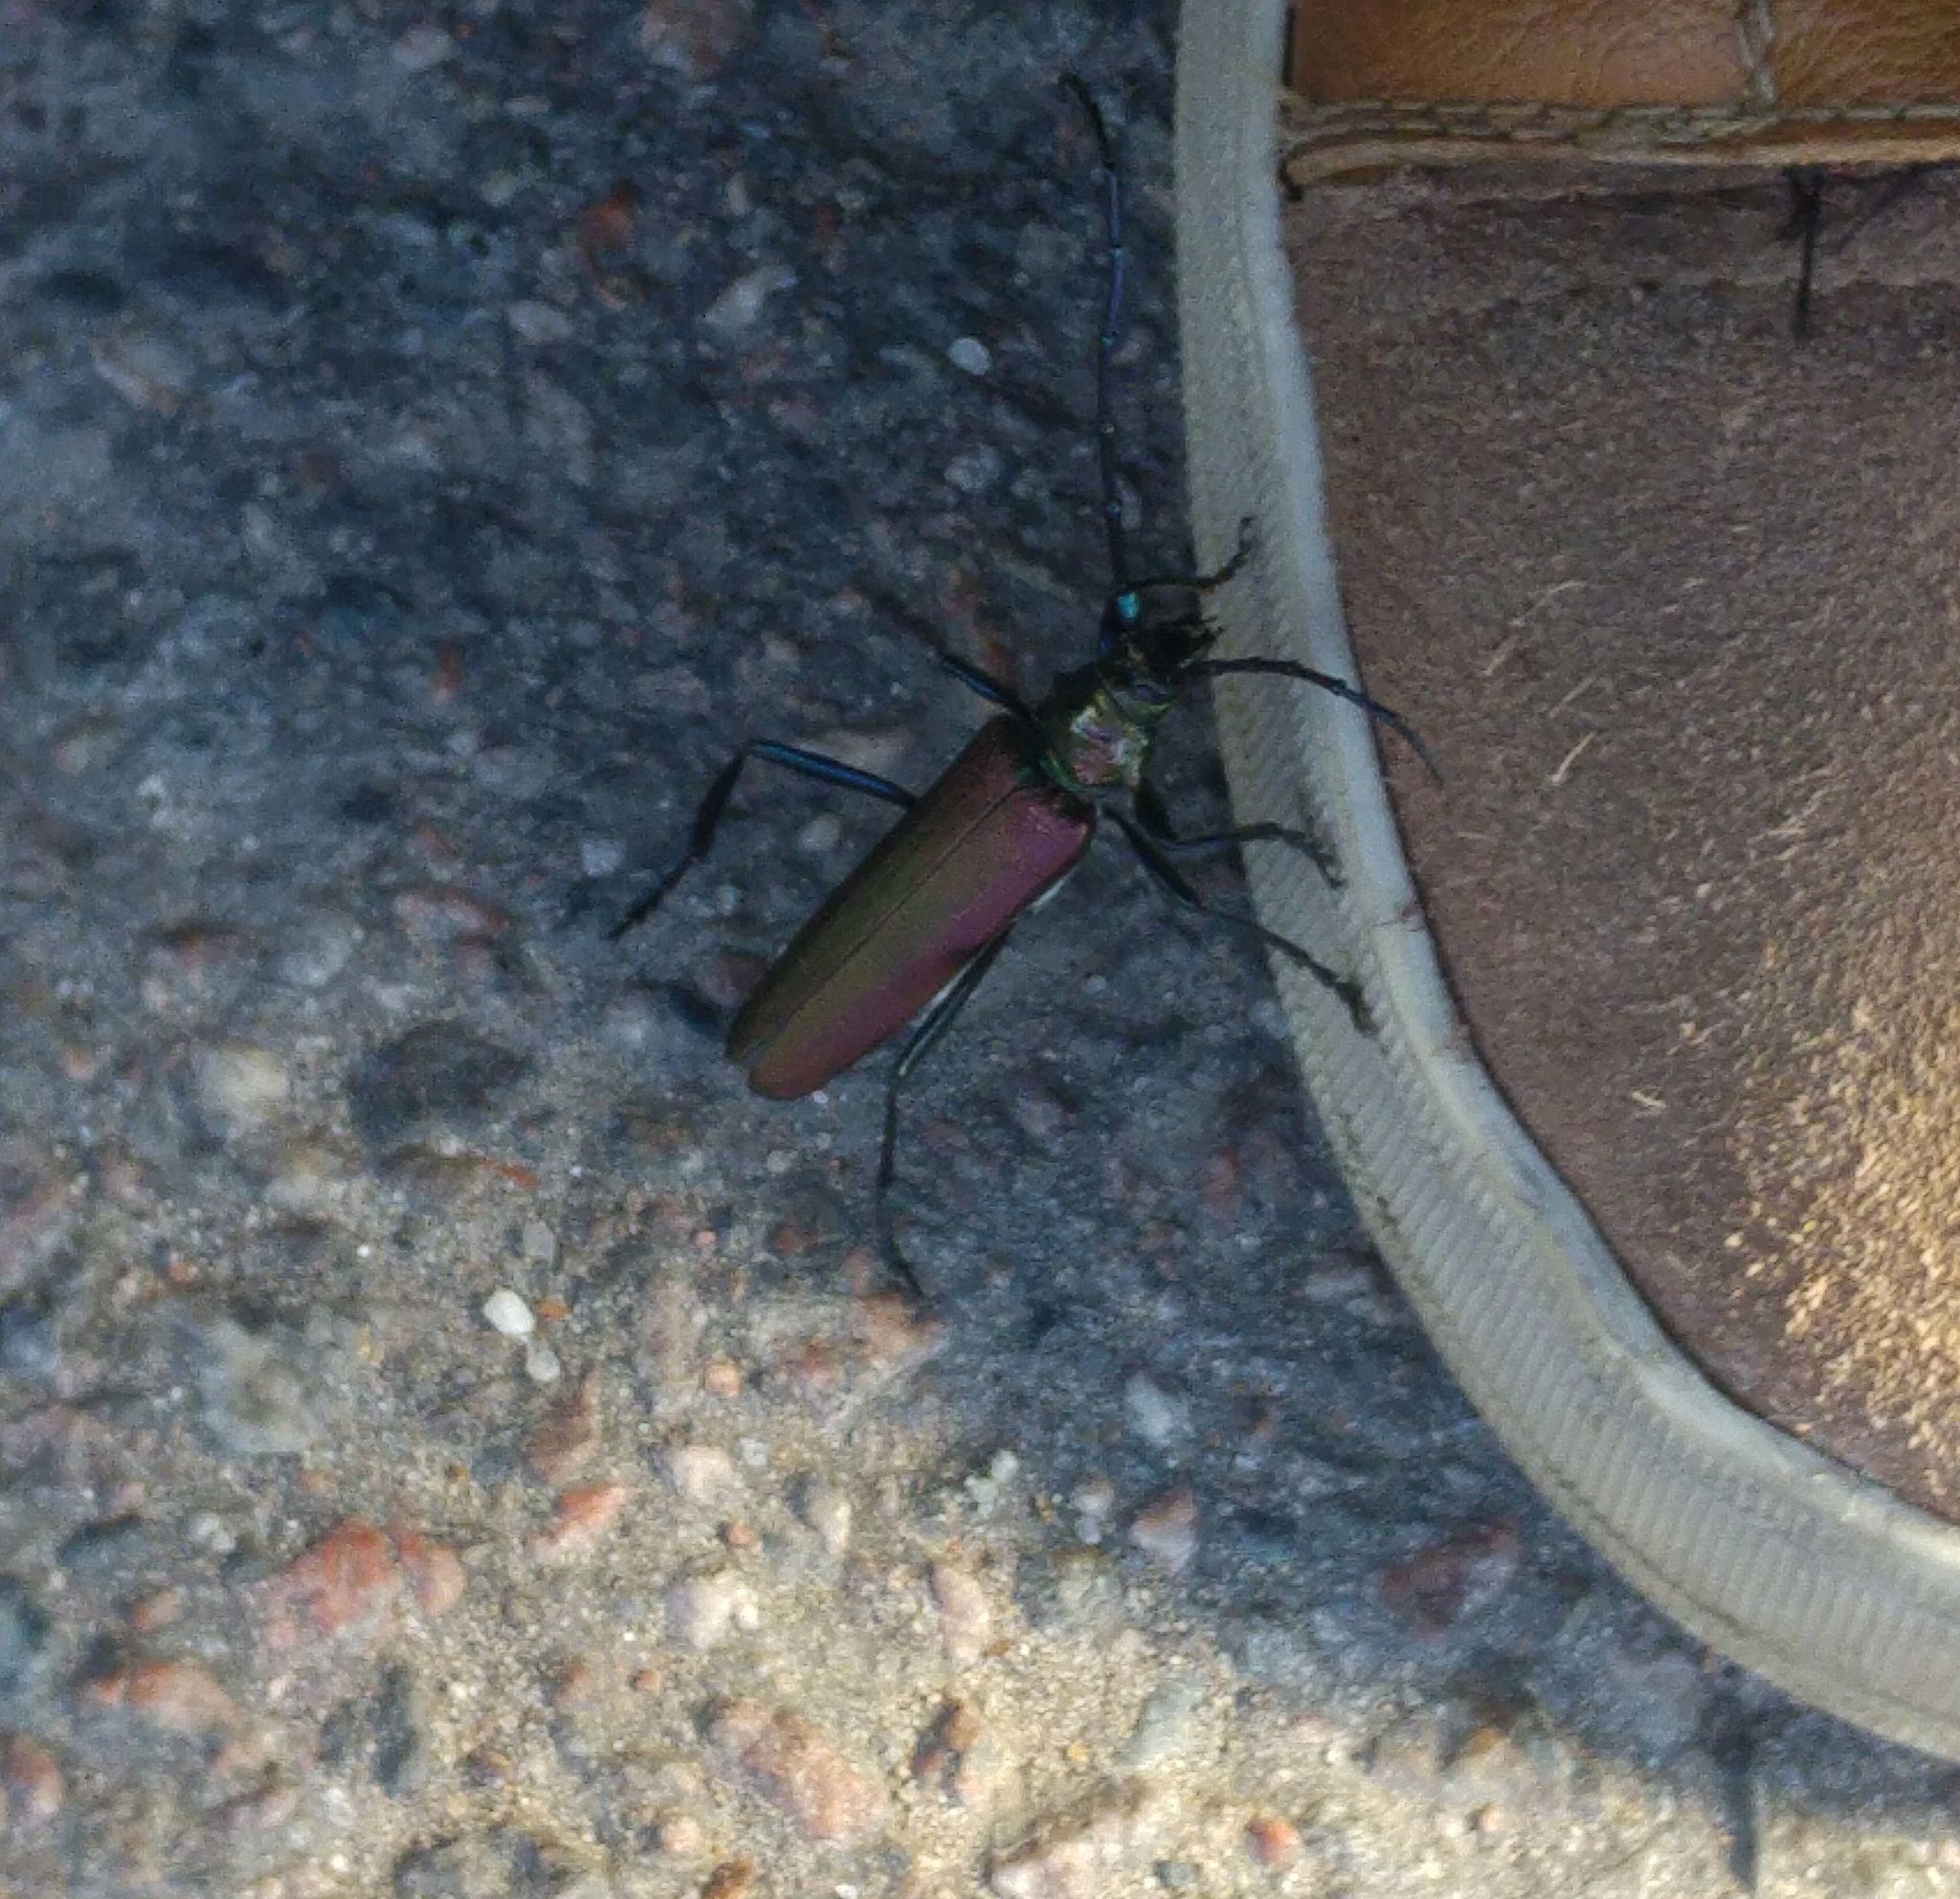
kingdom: Animalia
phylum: Arthropoda
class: Insecta
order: Coleoptera
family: Cerambycidae
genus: Aromia
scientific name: Aromia moschata
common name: Musk beetle
